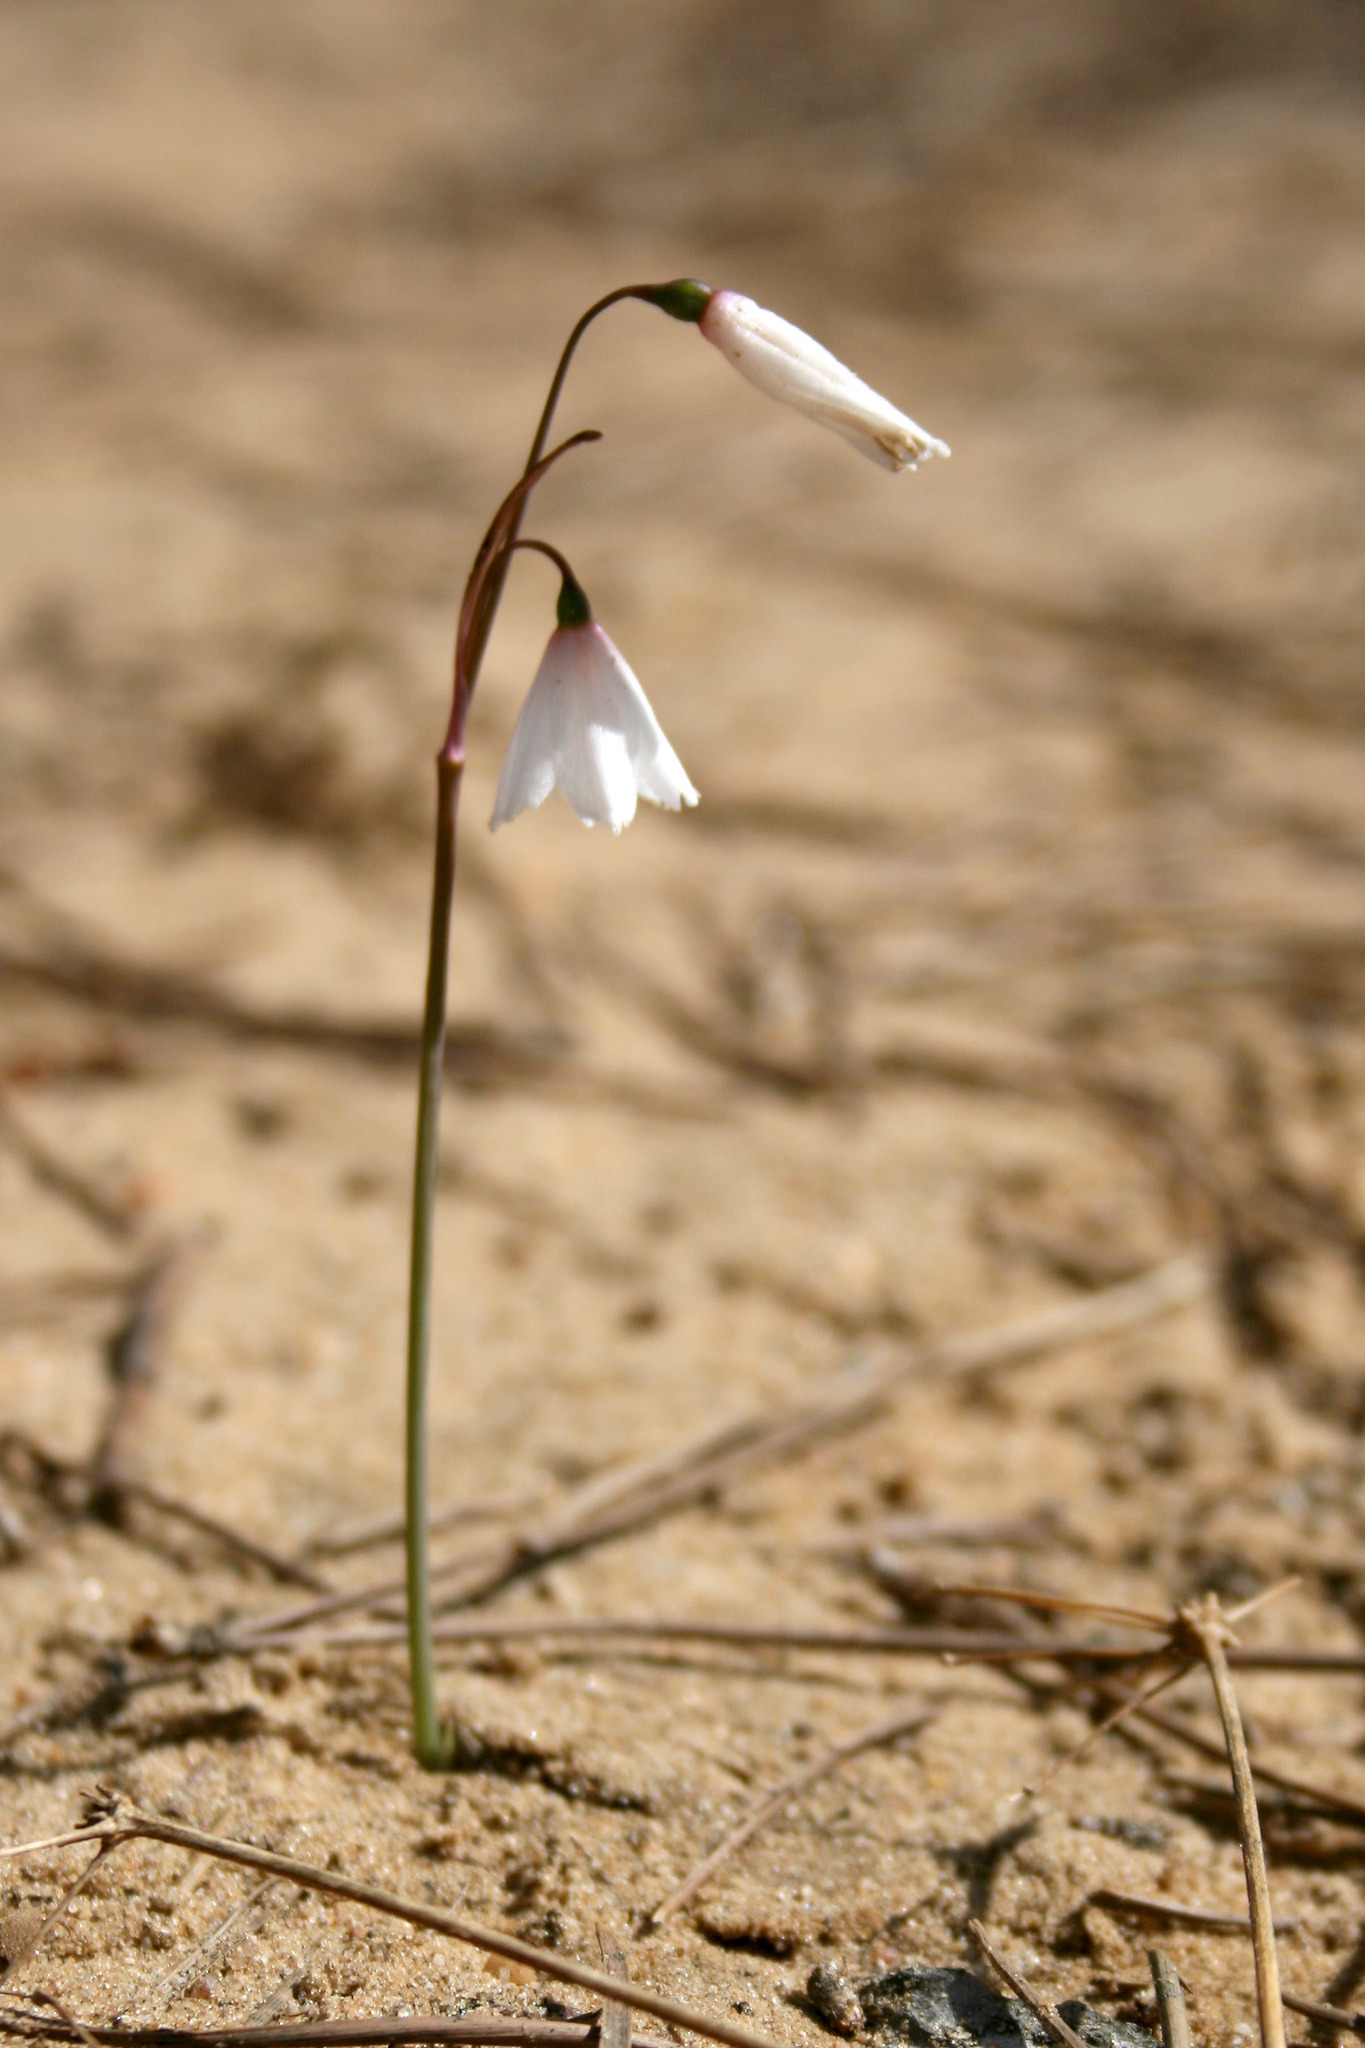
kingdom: Plantae
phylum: Tracheophyta
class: Liliopsida
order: Asparagales
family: Amaryllidaceae
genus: Acis
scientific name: Acis autumnalis
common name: Autumn snowflake
